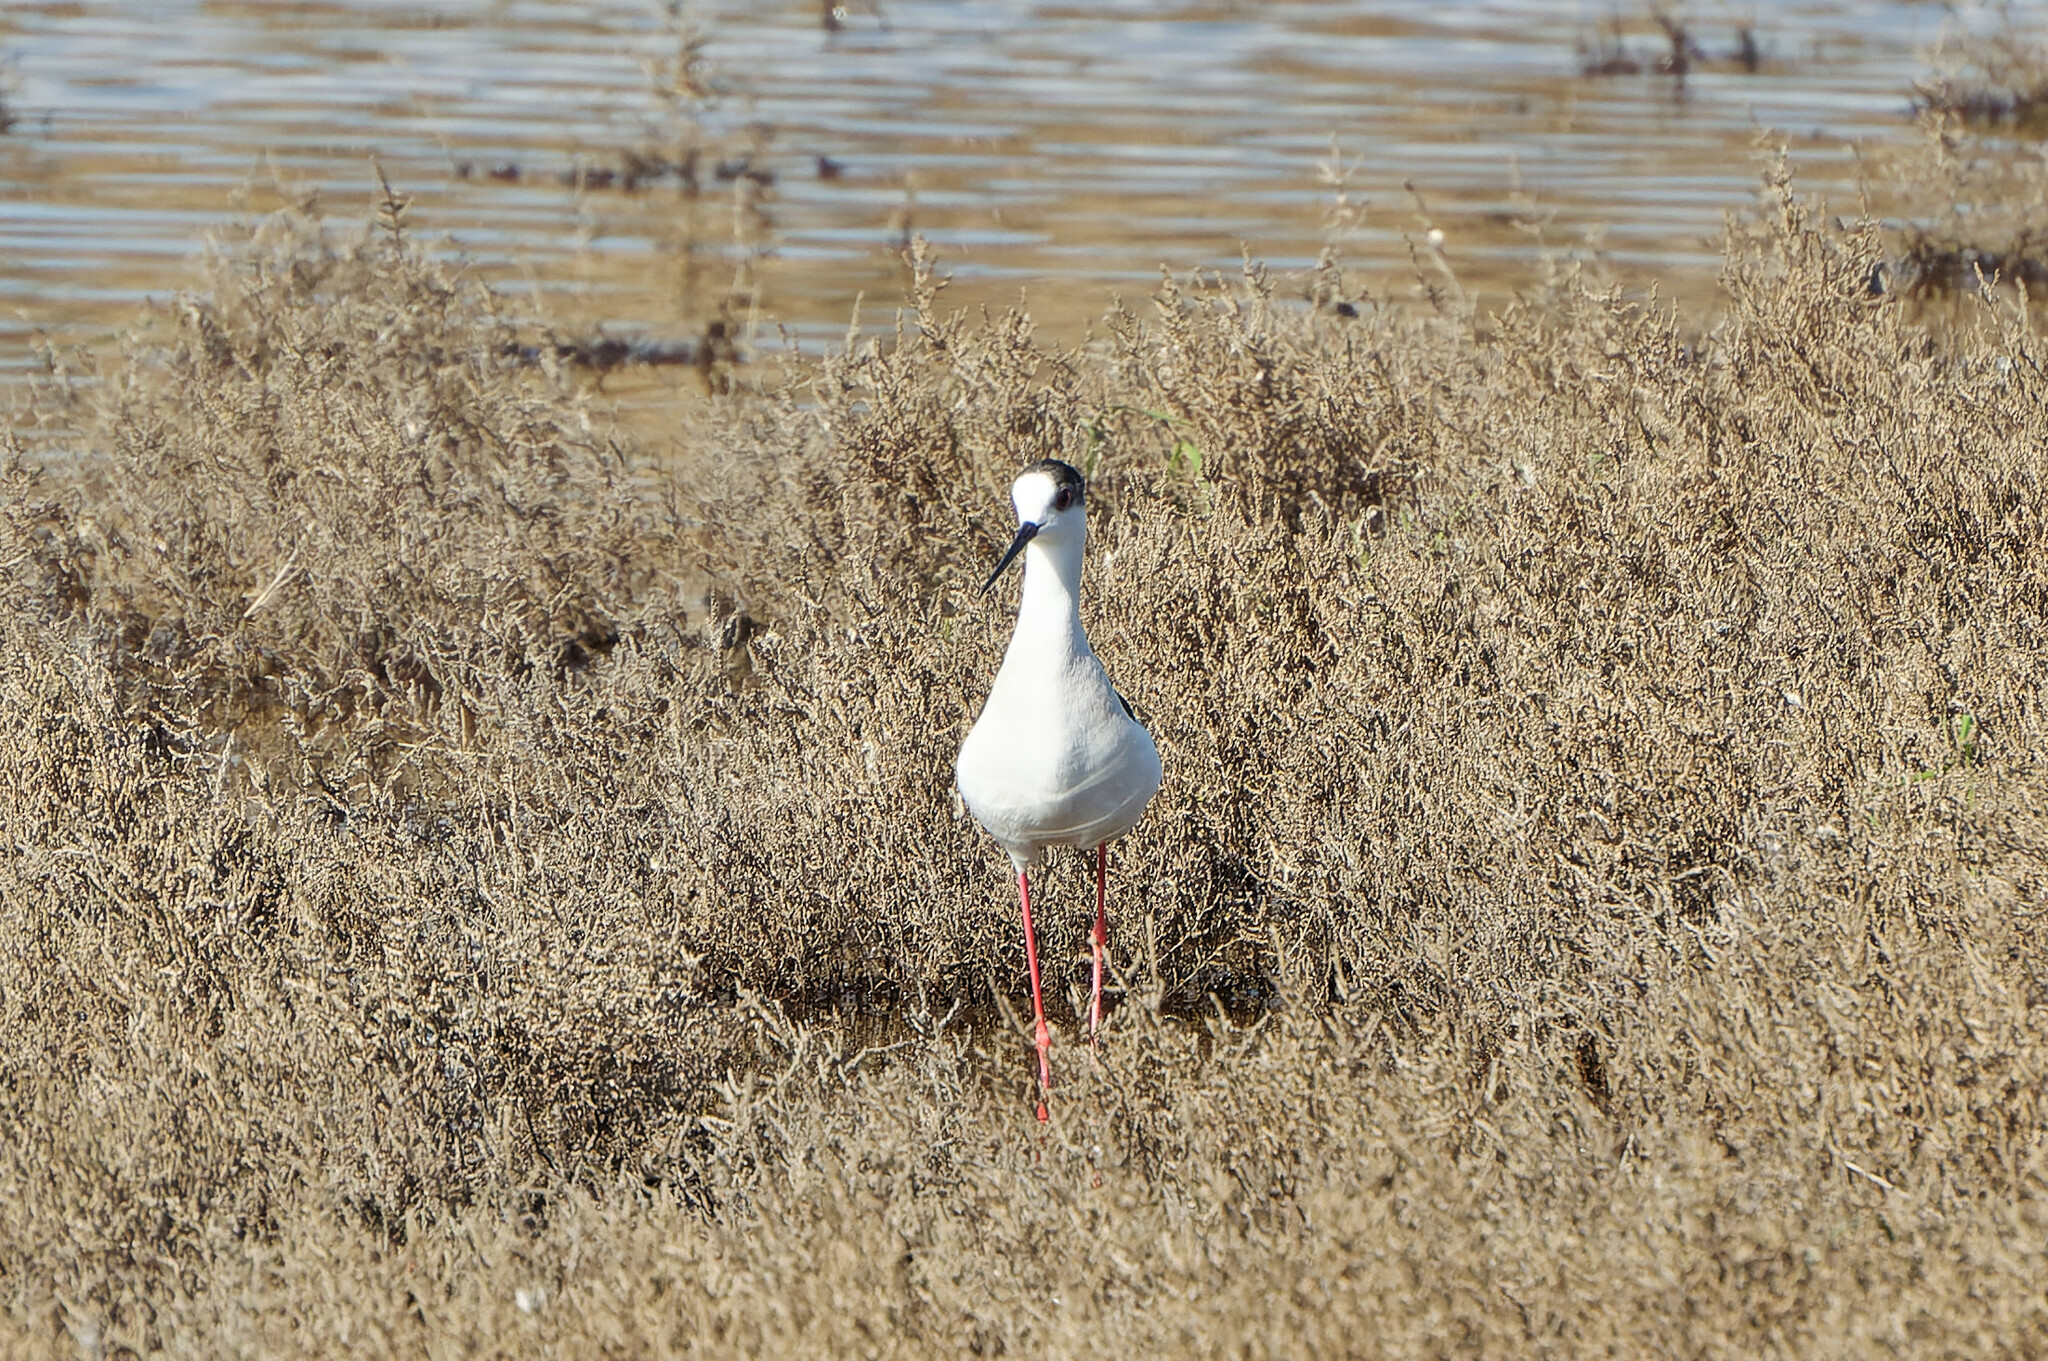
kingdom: Animalia
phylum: Chordata
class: Aves
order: Charadriiformes
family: Recurvirostridae
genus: Himantopus
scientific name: Himantopus himantopus
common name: Black-winged stilt
